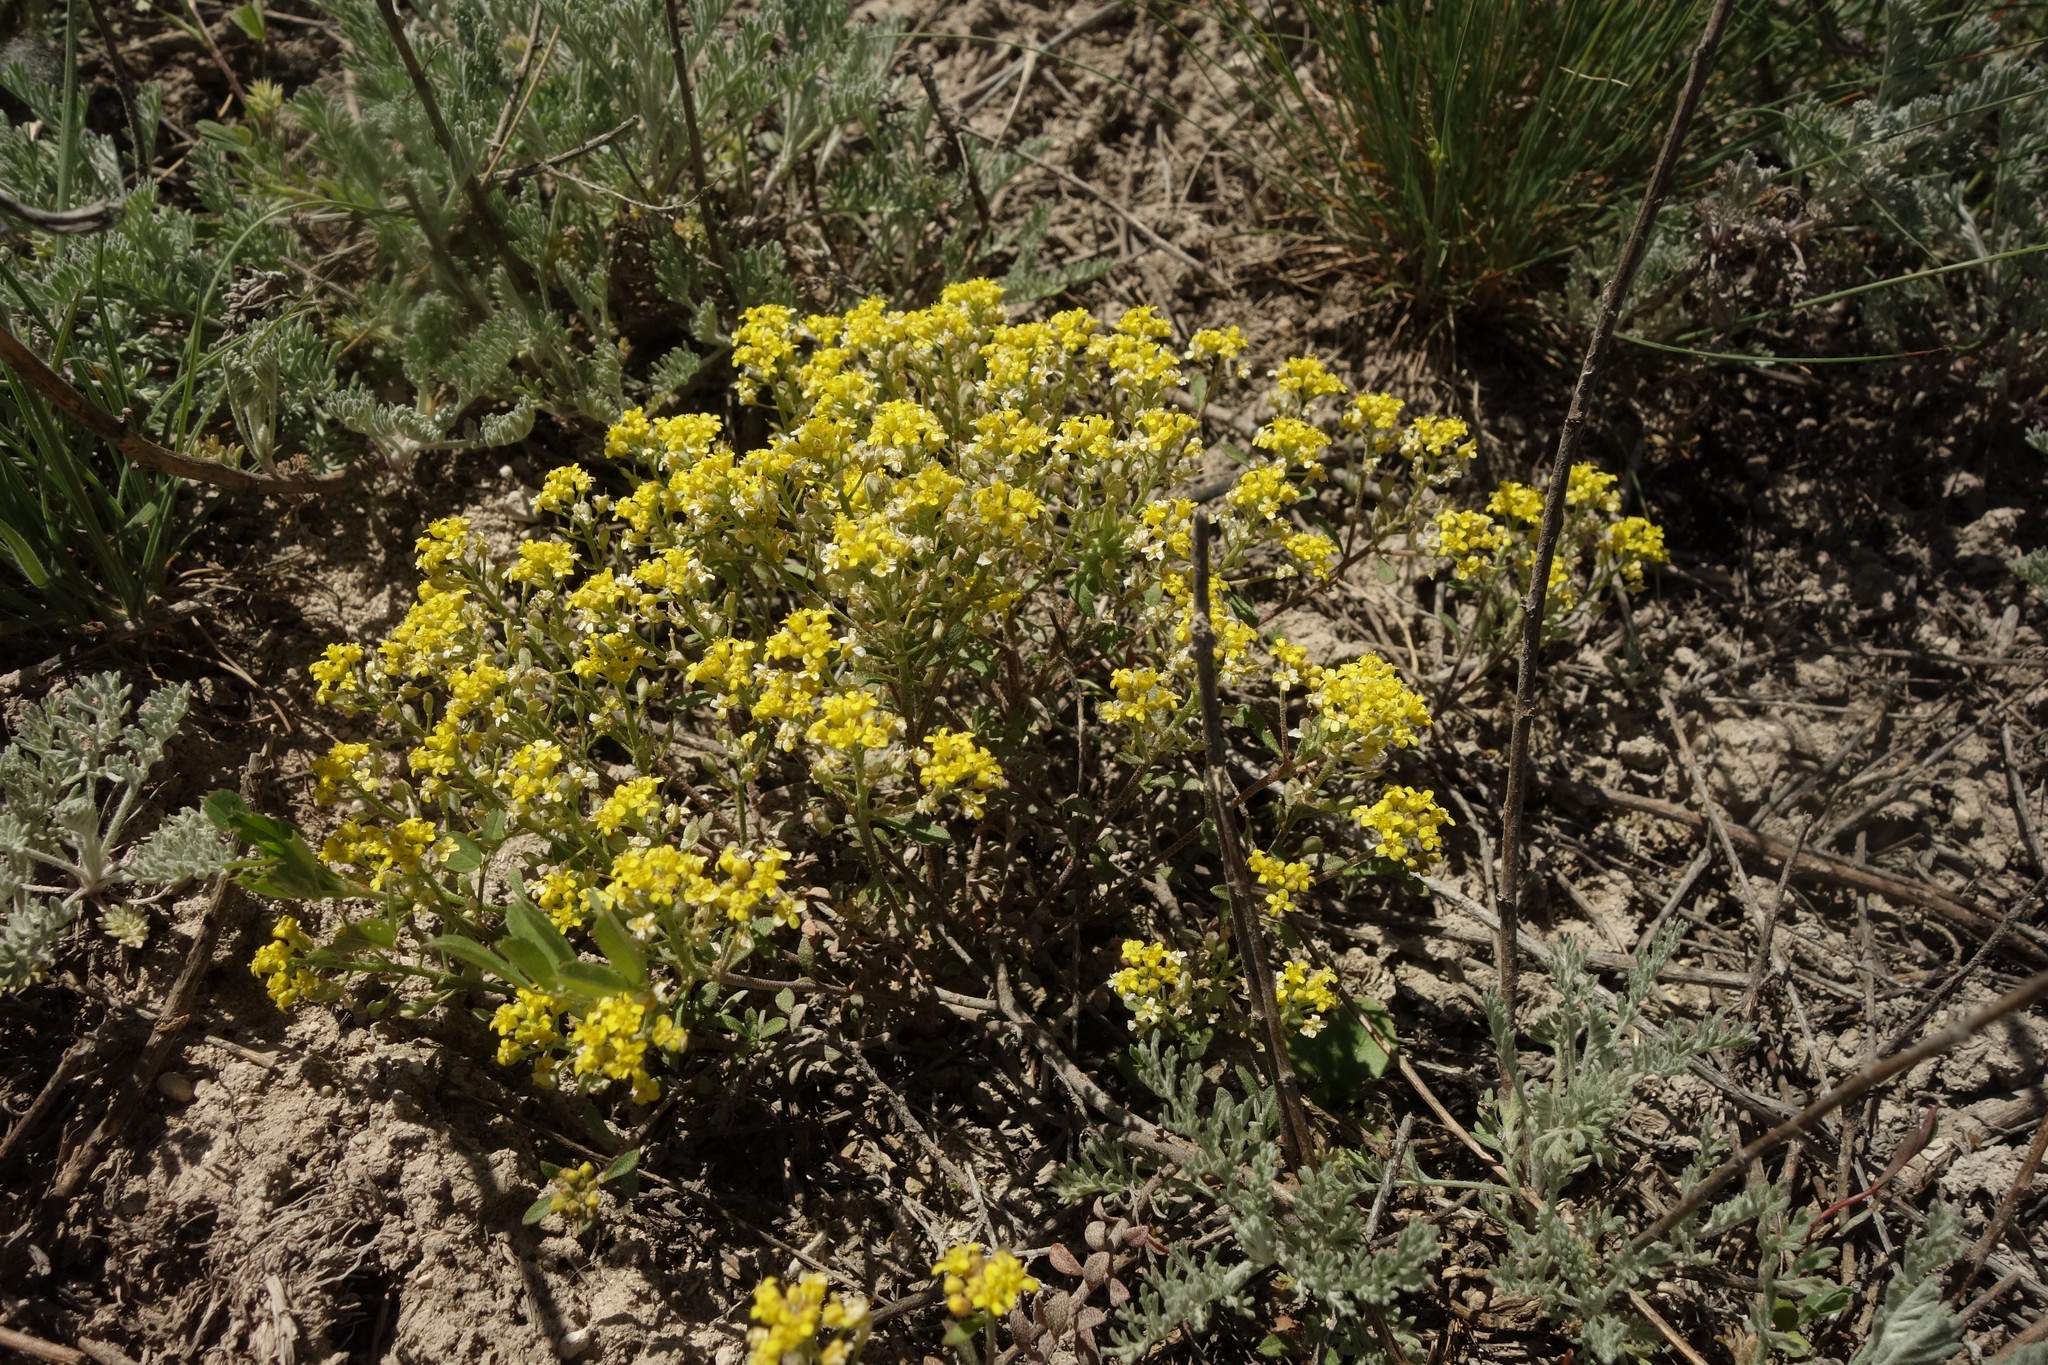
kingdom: Plantae
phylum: Tracheophyta
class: Magnoliopsida
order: Brassicales
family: Brassicaceae
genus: Odontarrhena
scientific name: Odontarrhena tortuosa
